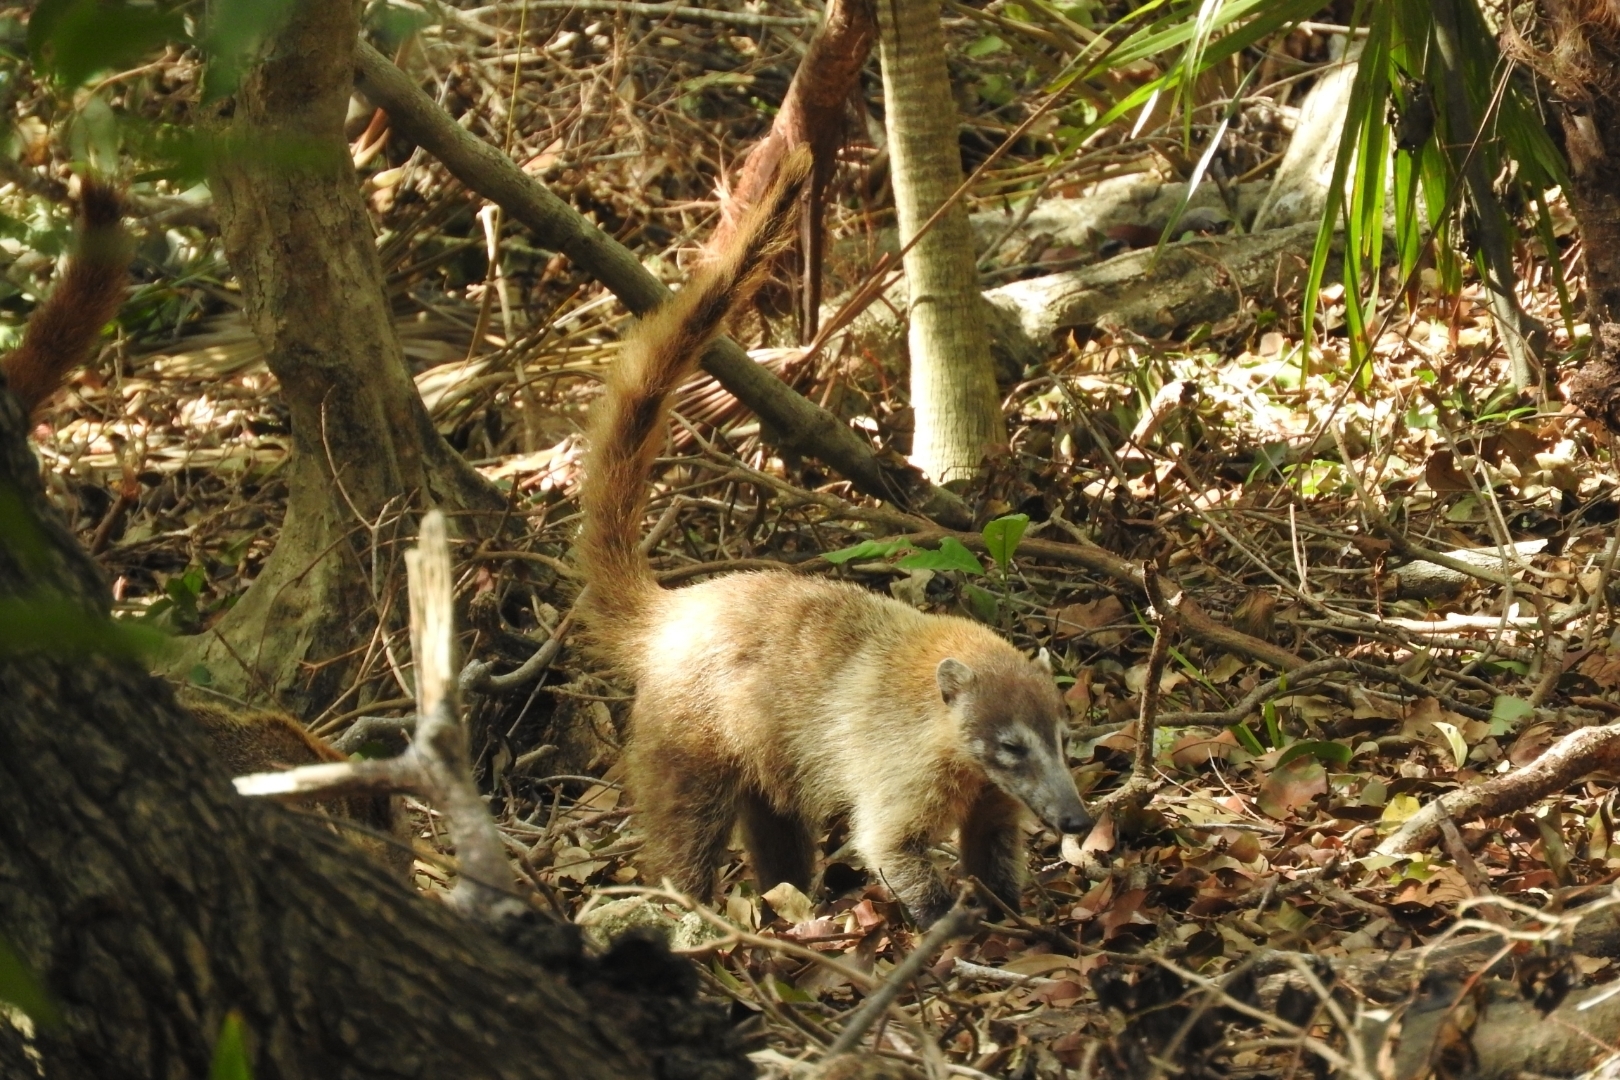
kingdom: Animalia
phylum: Chordata
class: Mammalia
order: Carnivora
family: Procyonidae
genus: Nasua
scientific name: Nasua narica
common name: White-nosed coati
